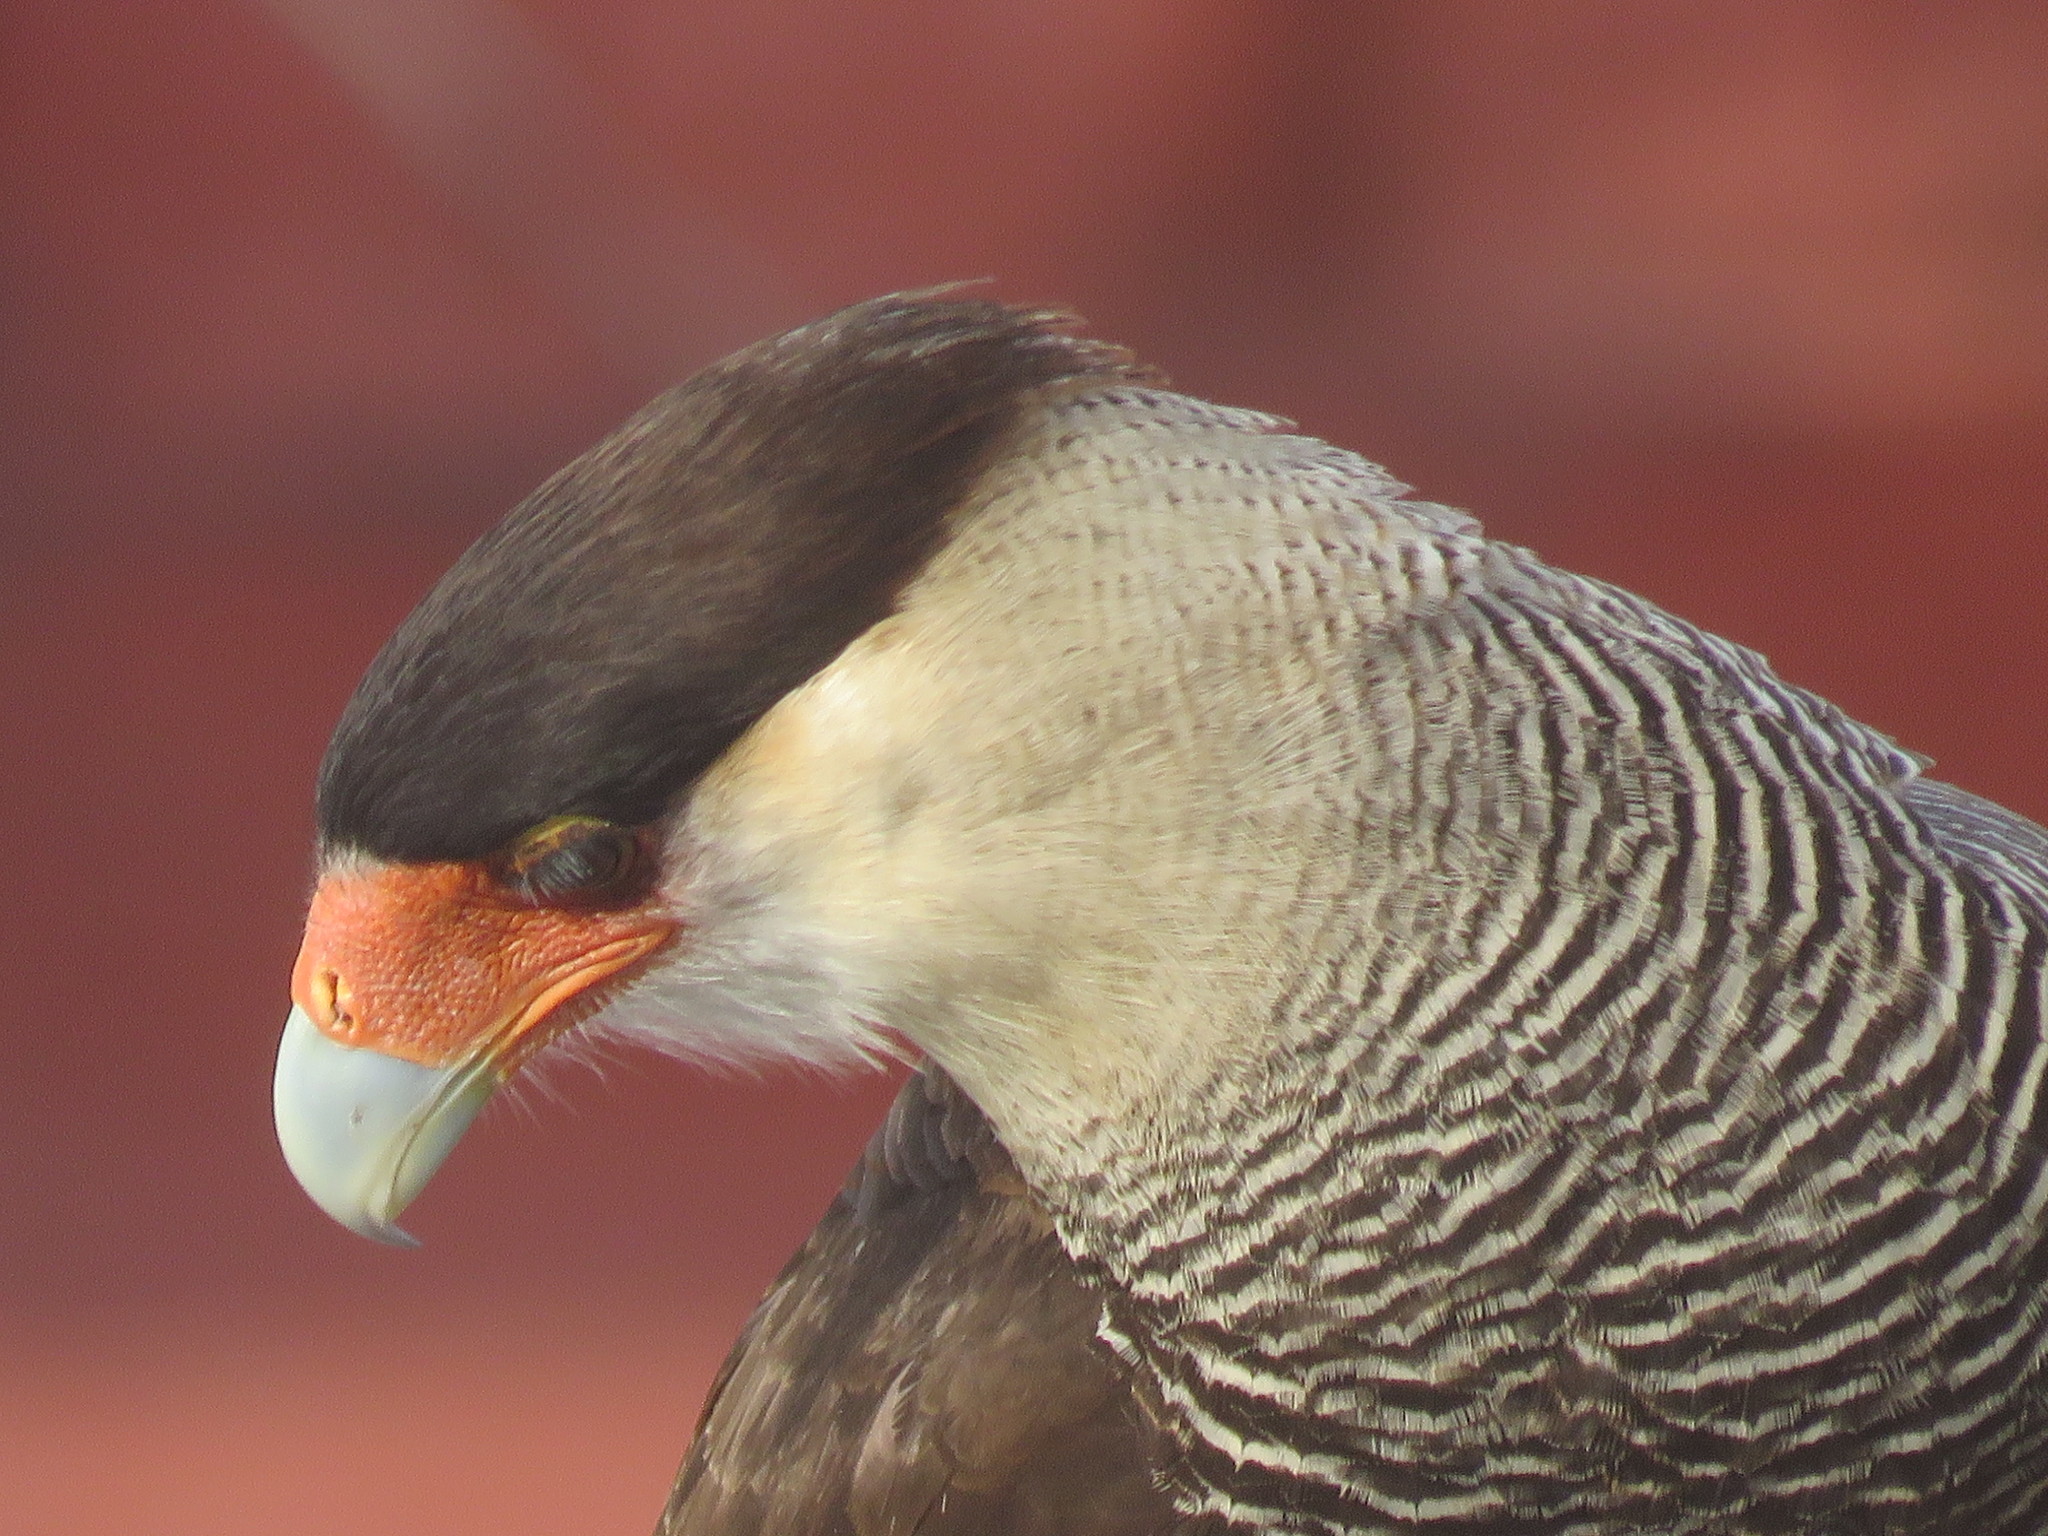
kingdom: Animalia
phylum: Chordata
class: Aves
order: Falconiformes
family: Falconidae
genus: Caracara
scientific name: Caracara plancus
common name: Southern caracara
